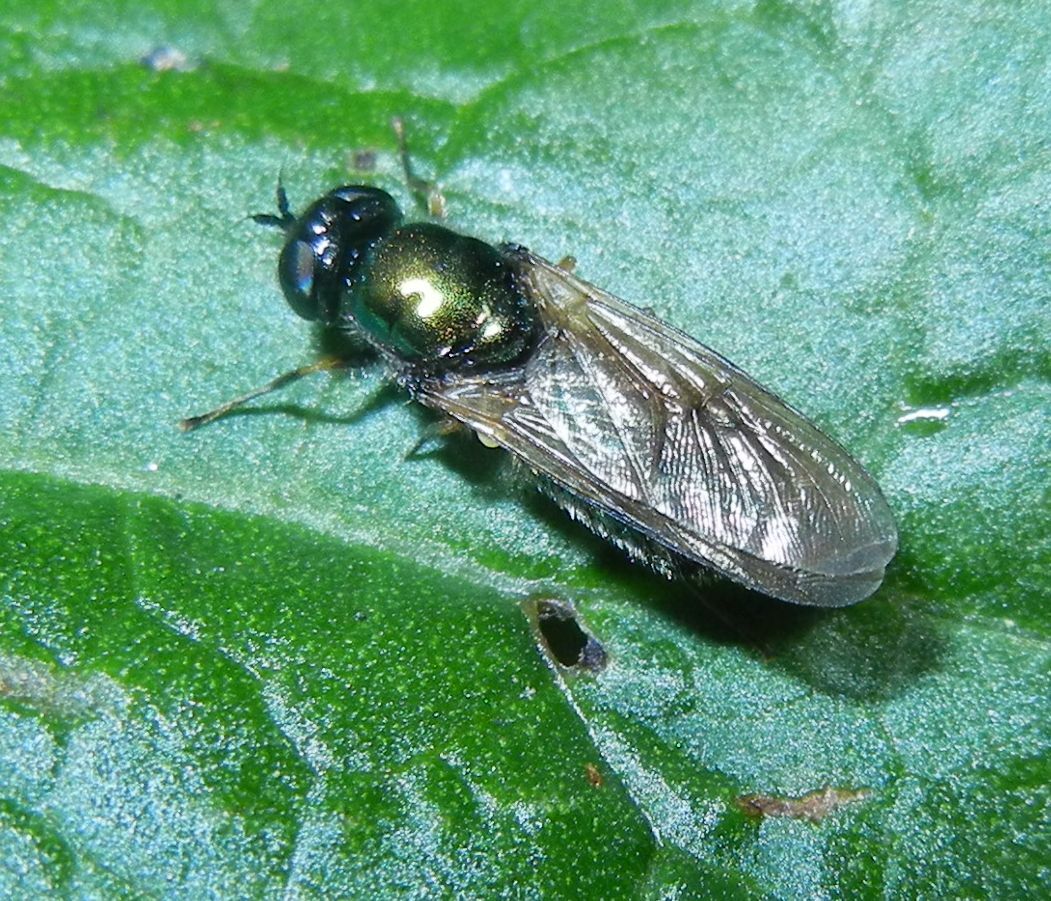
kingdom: Animalia
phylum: Arthropoda
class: Insecta
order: Diptera
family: Stratiomyidae
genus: Chloromyia
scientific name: Chloromyia formosa
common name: Soldier fly
